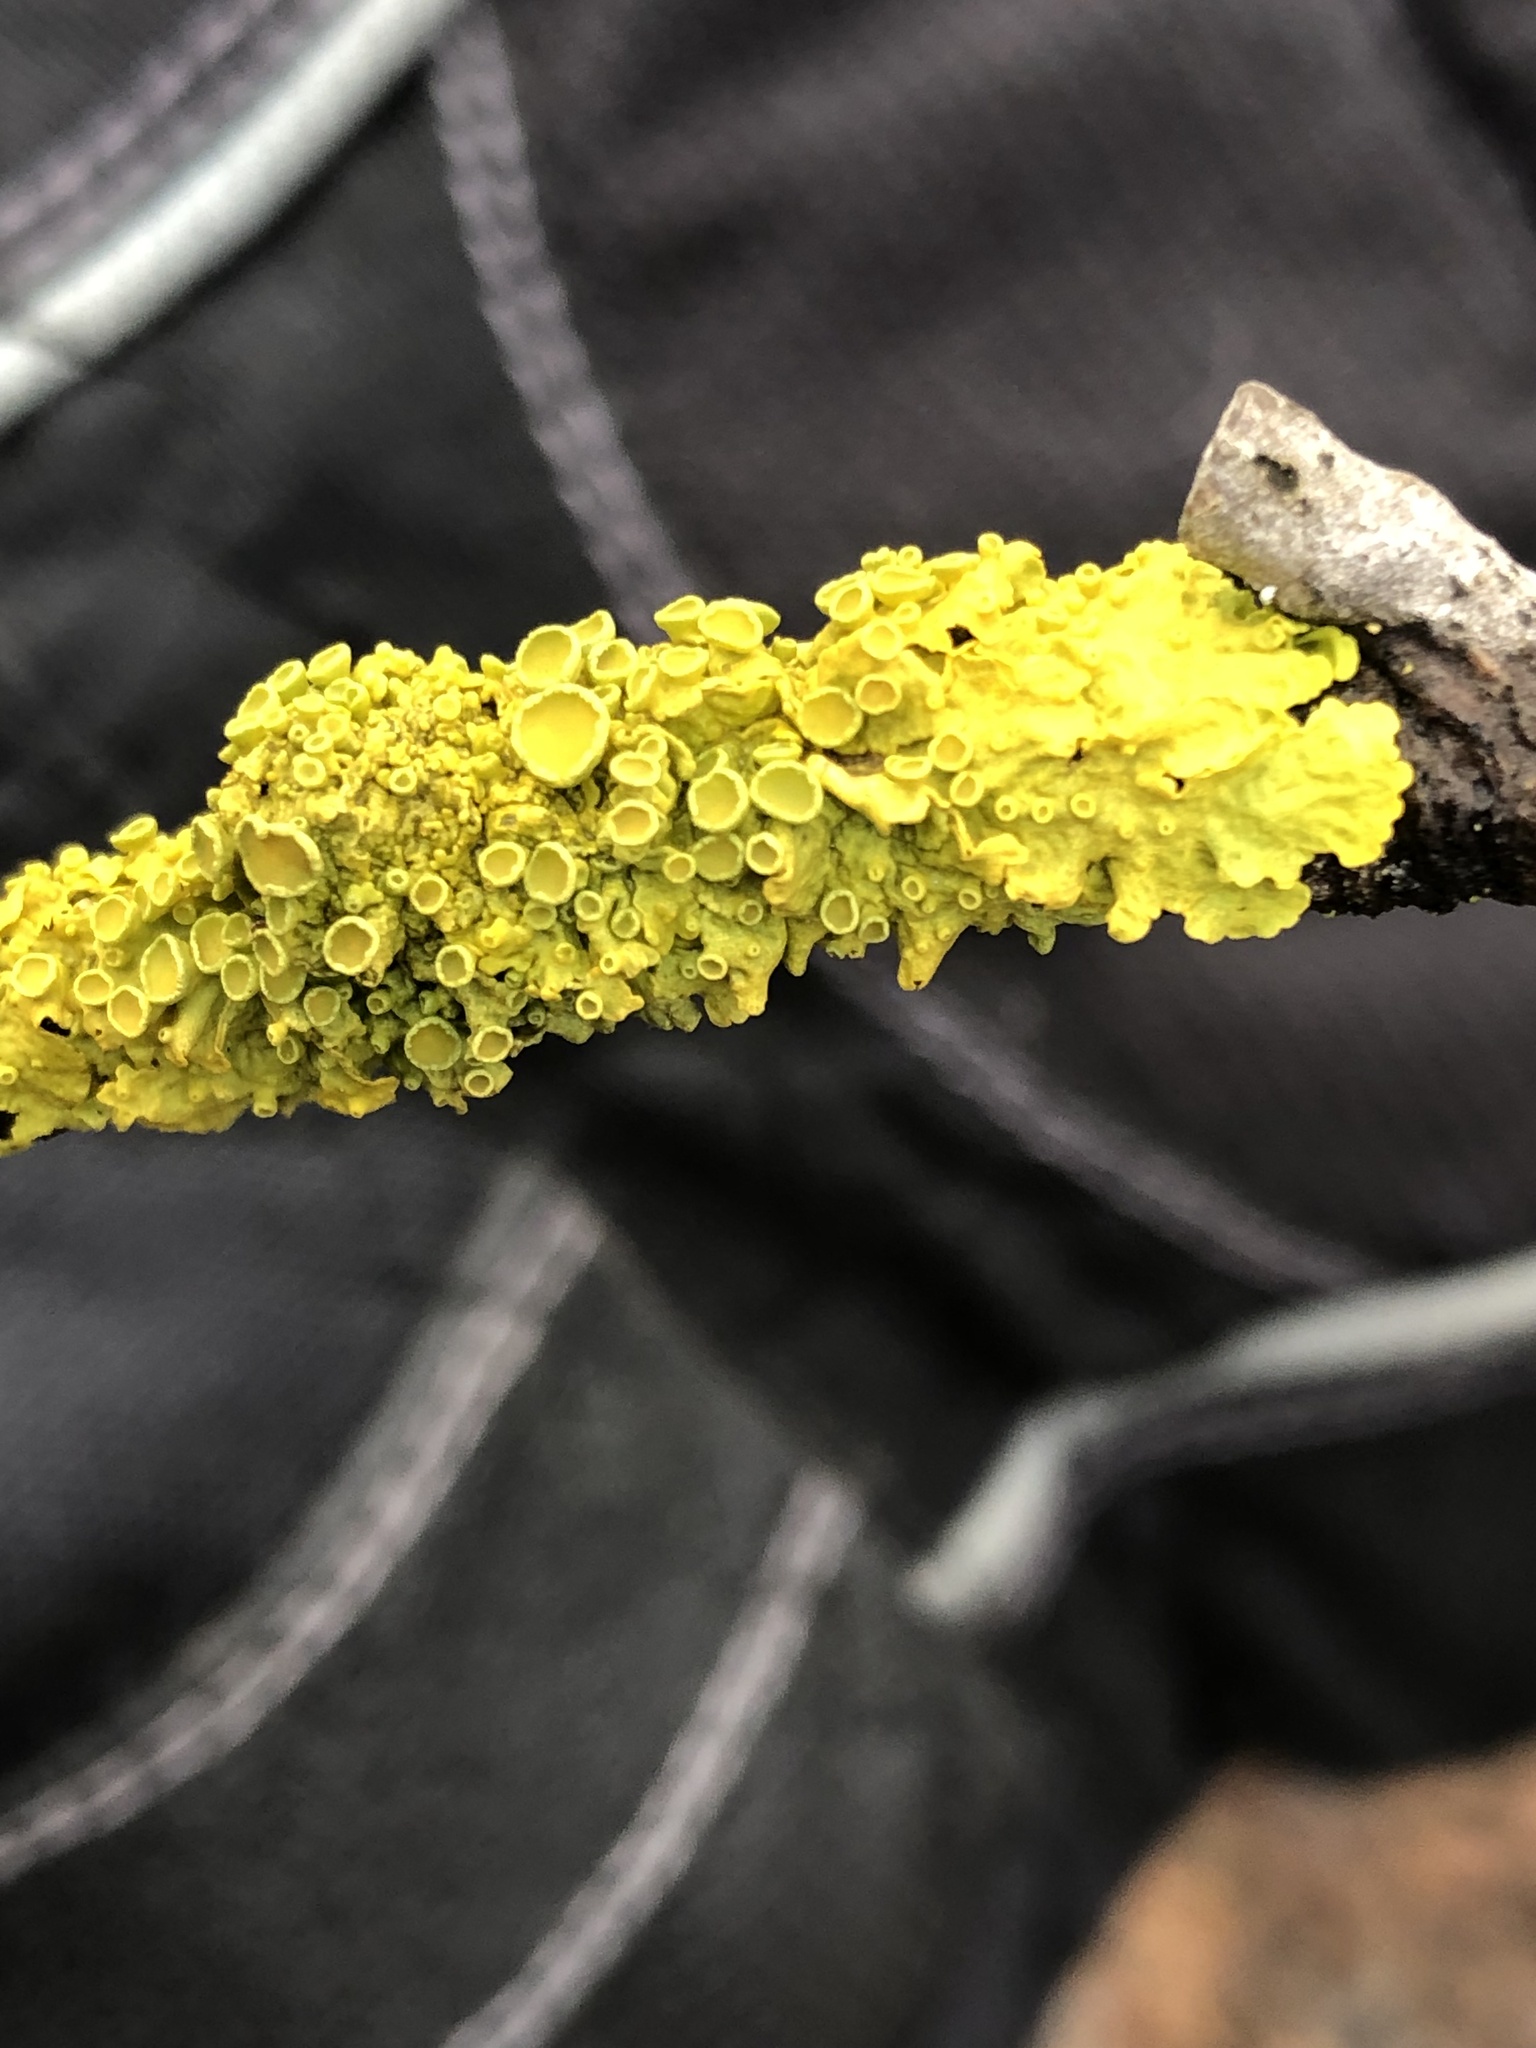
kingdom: Fungi
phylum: Ascomycota
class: Lecanoromycetes
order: Teloschistales
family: Teloschistaceae
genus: Xanthoria
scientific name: Xanthoria parietina
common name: Common orange lichen
